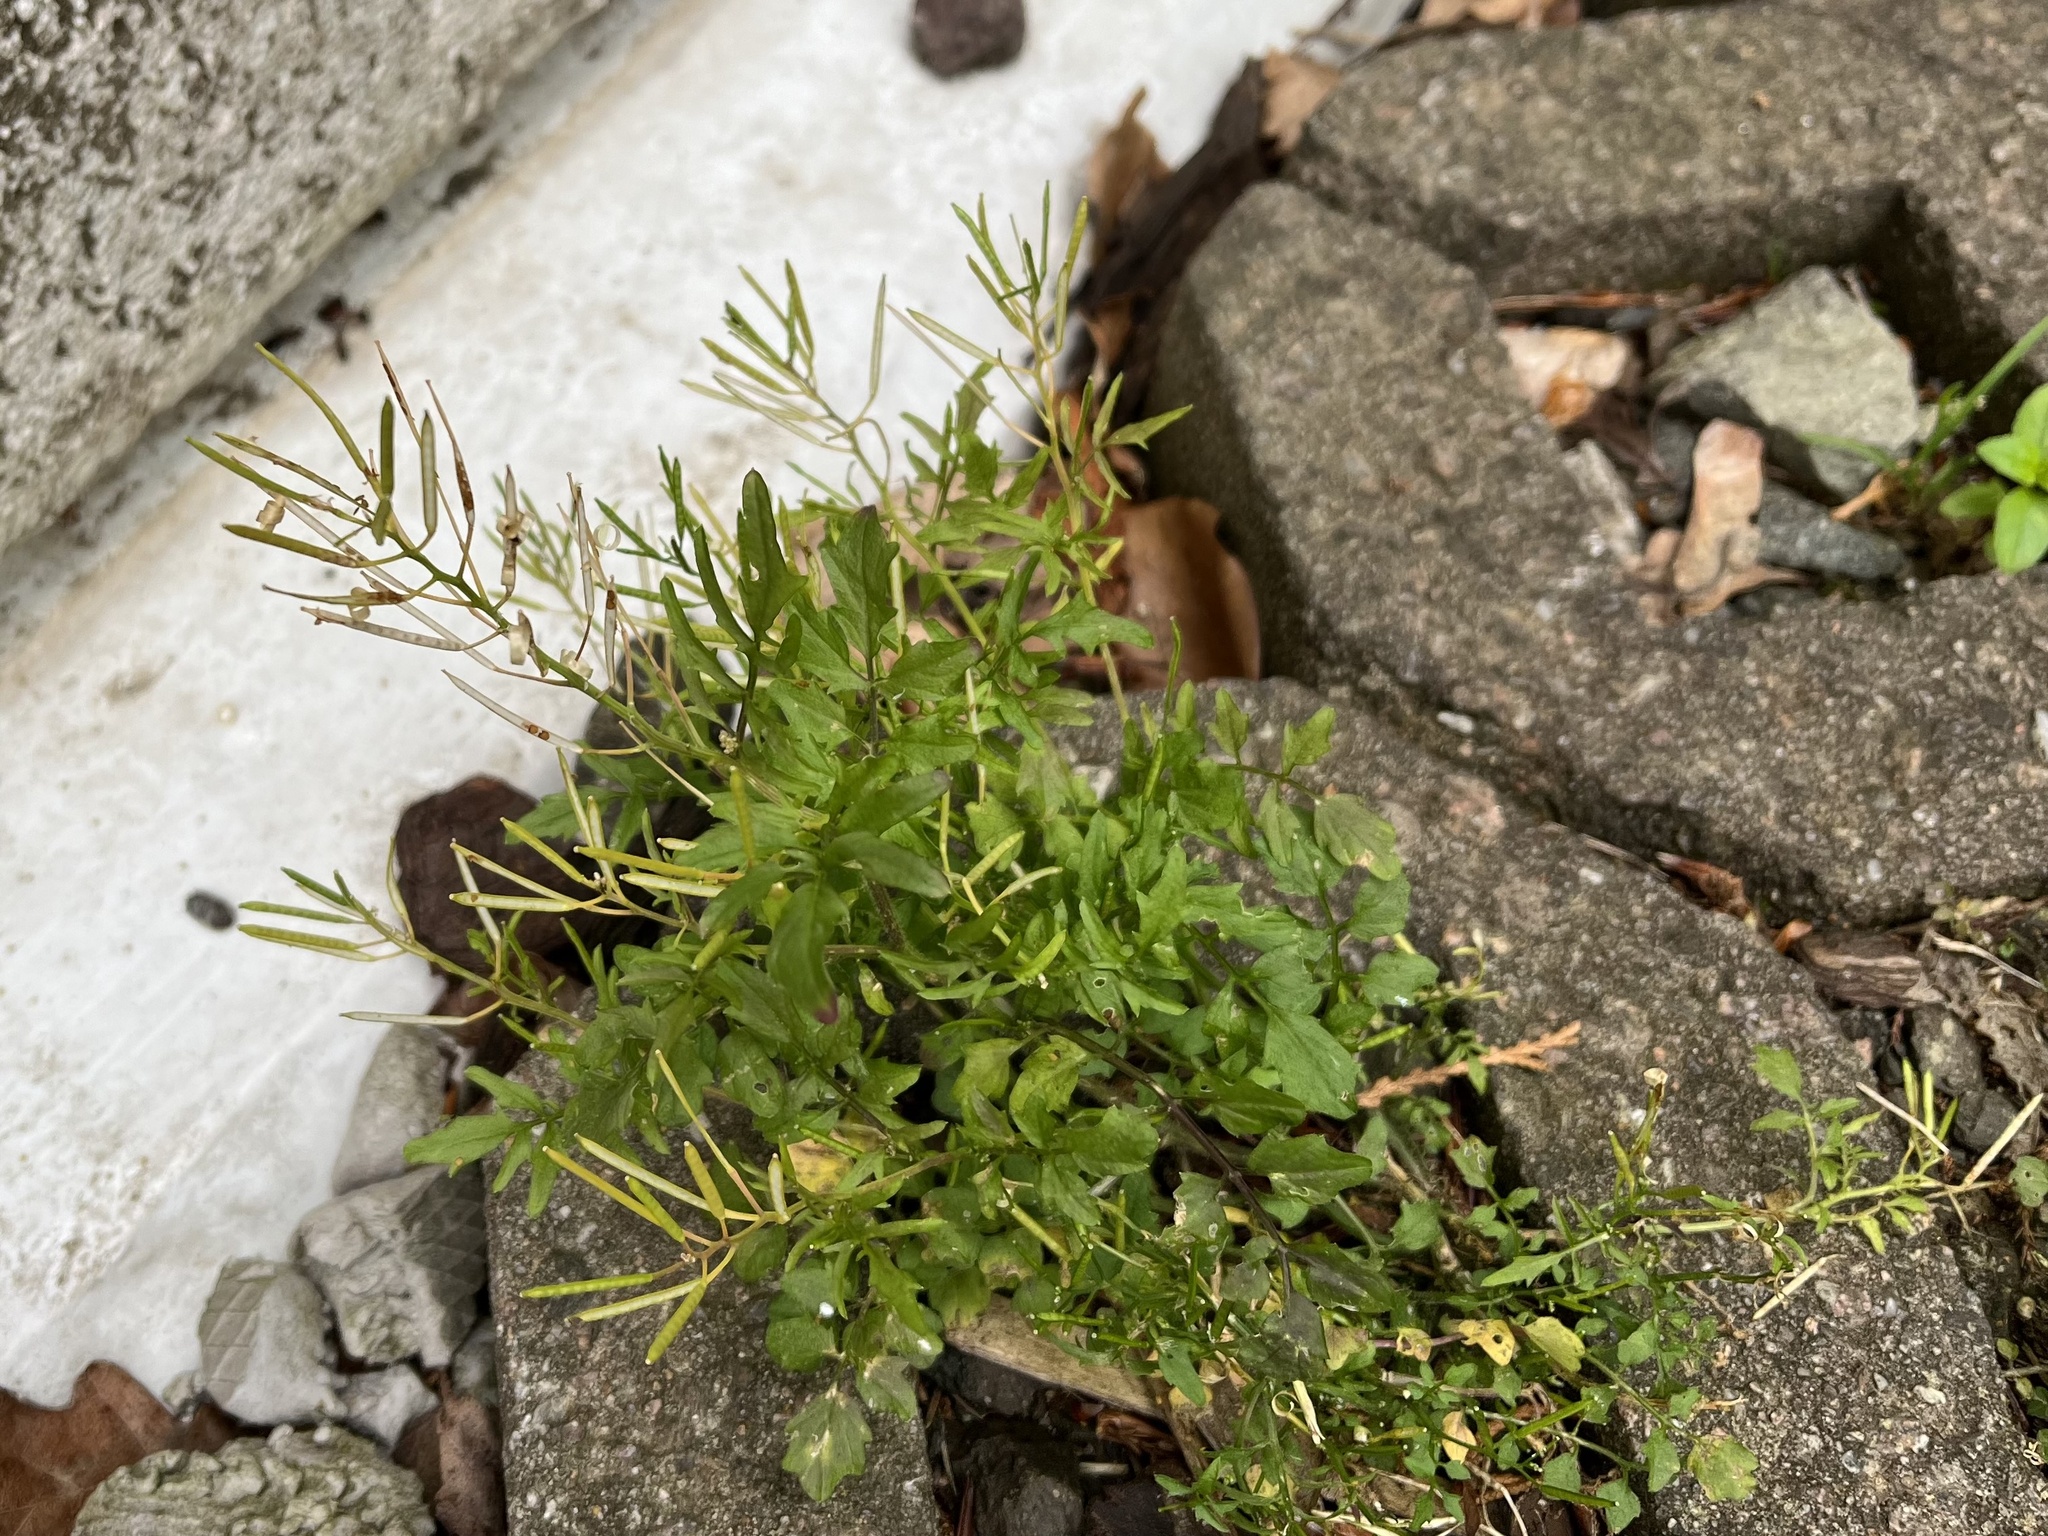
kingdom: Plantae
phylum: Tracheophyta
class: Magnoliopsida
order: Brassicales
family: Brassicaceae
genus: Cardamine
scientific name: Cardamine flexuosa
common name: Woodland bittercress
